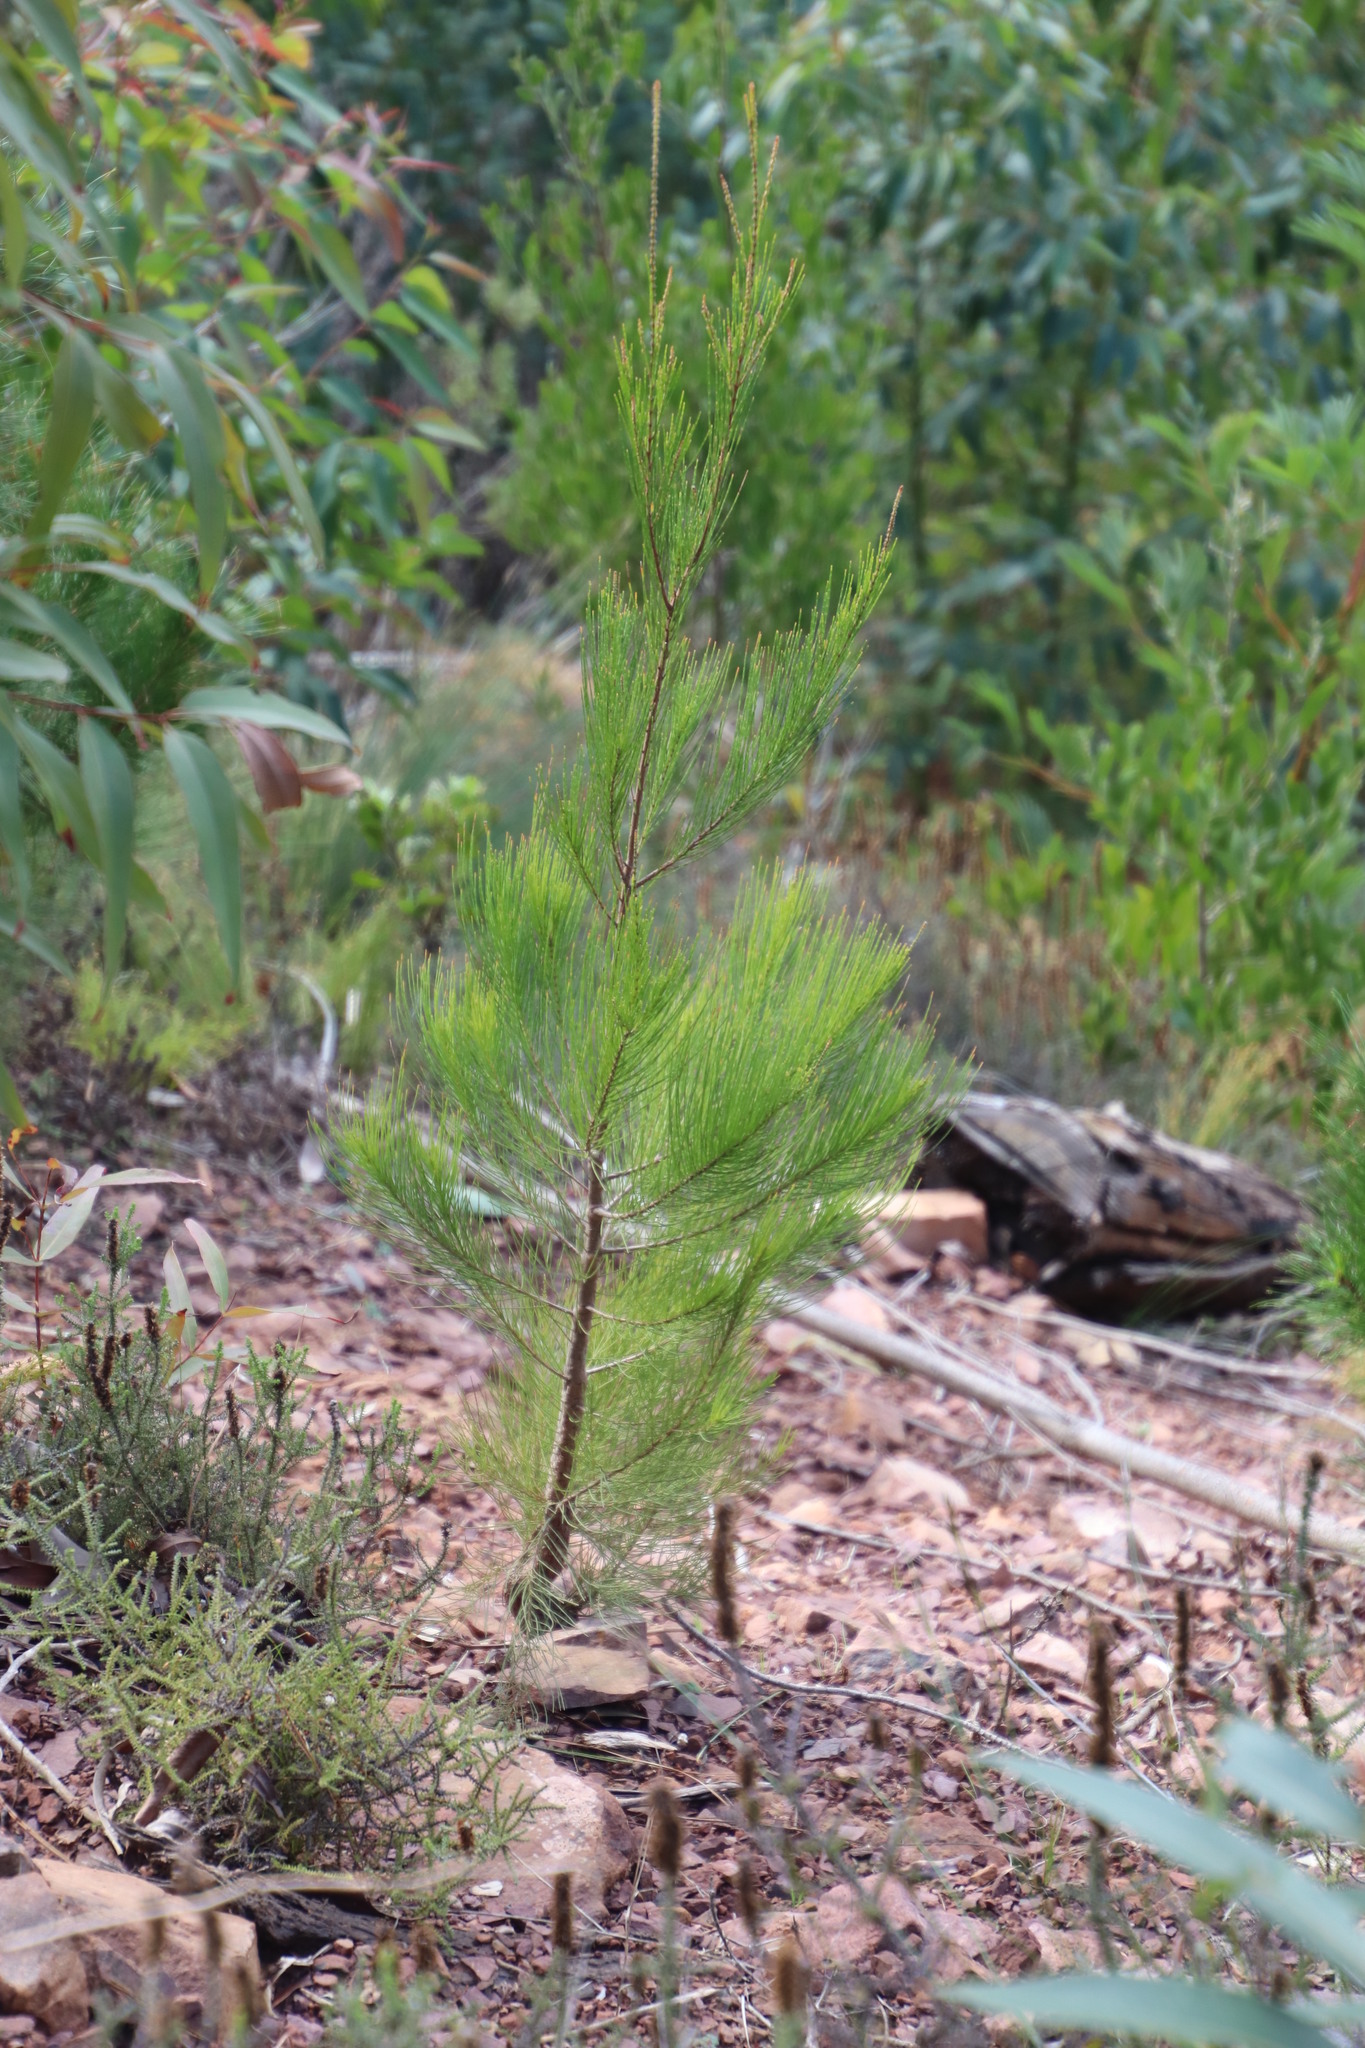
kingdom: Plantae
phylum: Tracheophyta
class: Magnoliopsida
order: Fagales
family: Casuarinaceae
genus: Allocasuarina
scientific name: Allocasuarina littoralis
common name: Black she-oak
